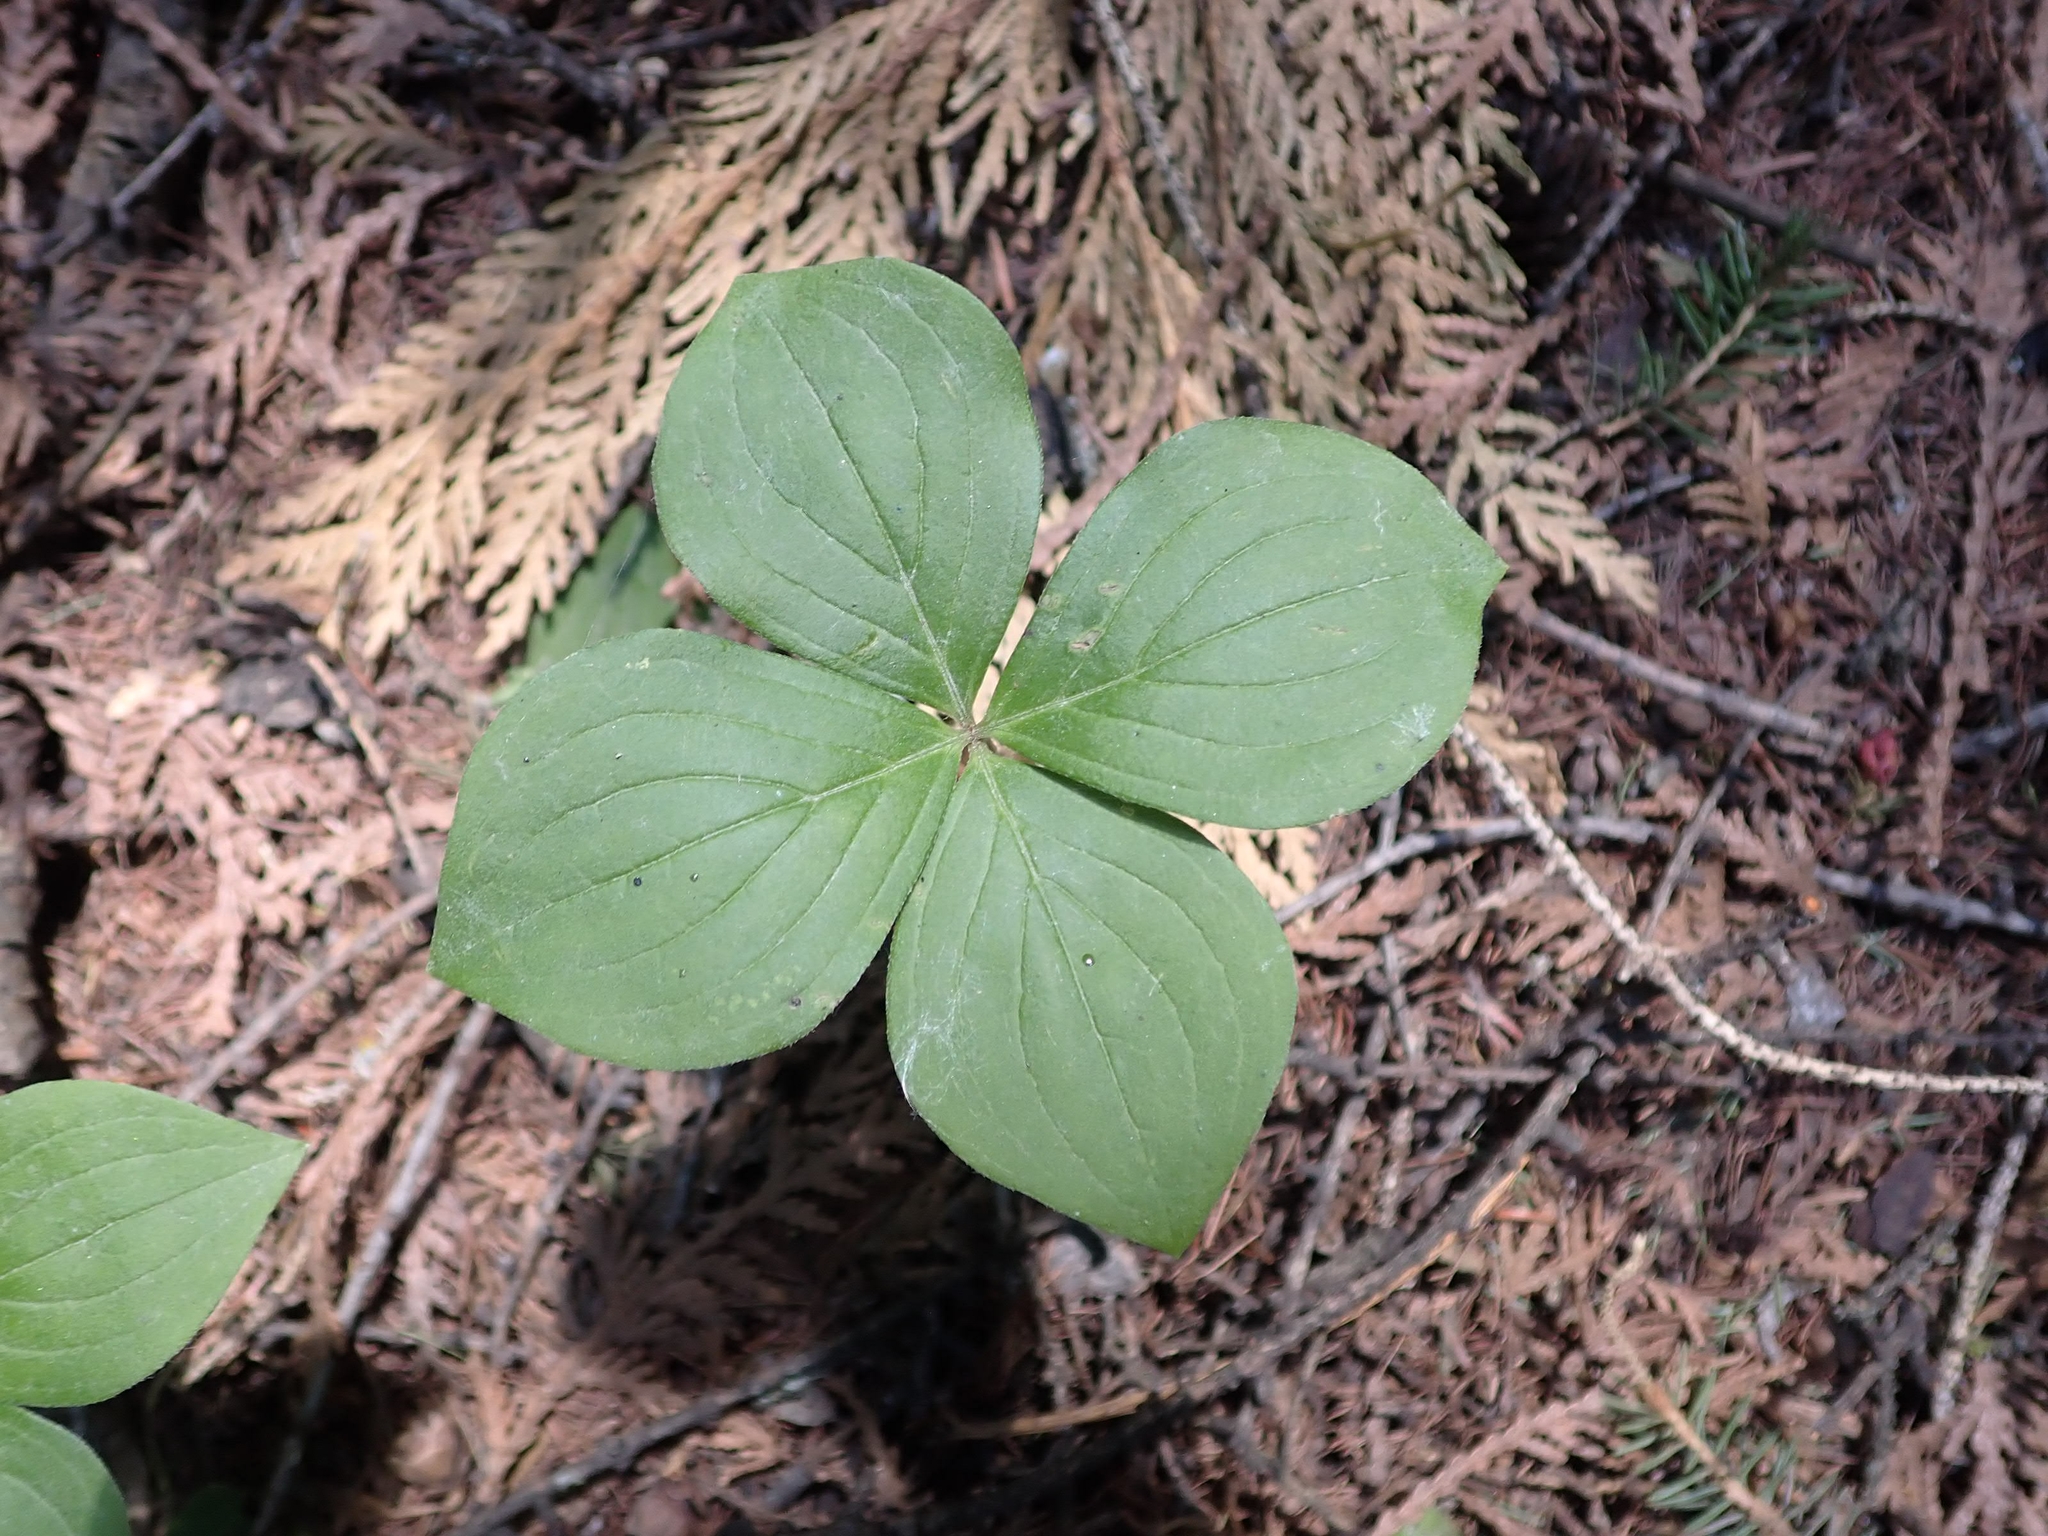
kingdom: Plantae
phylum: Tracheophyta
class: Magnoliopsida
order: Cornales
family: Cornaceae
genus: Cornus
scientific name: Cornus canadensis
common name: Creeping dogwood
